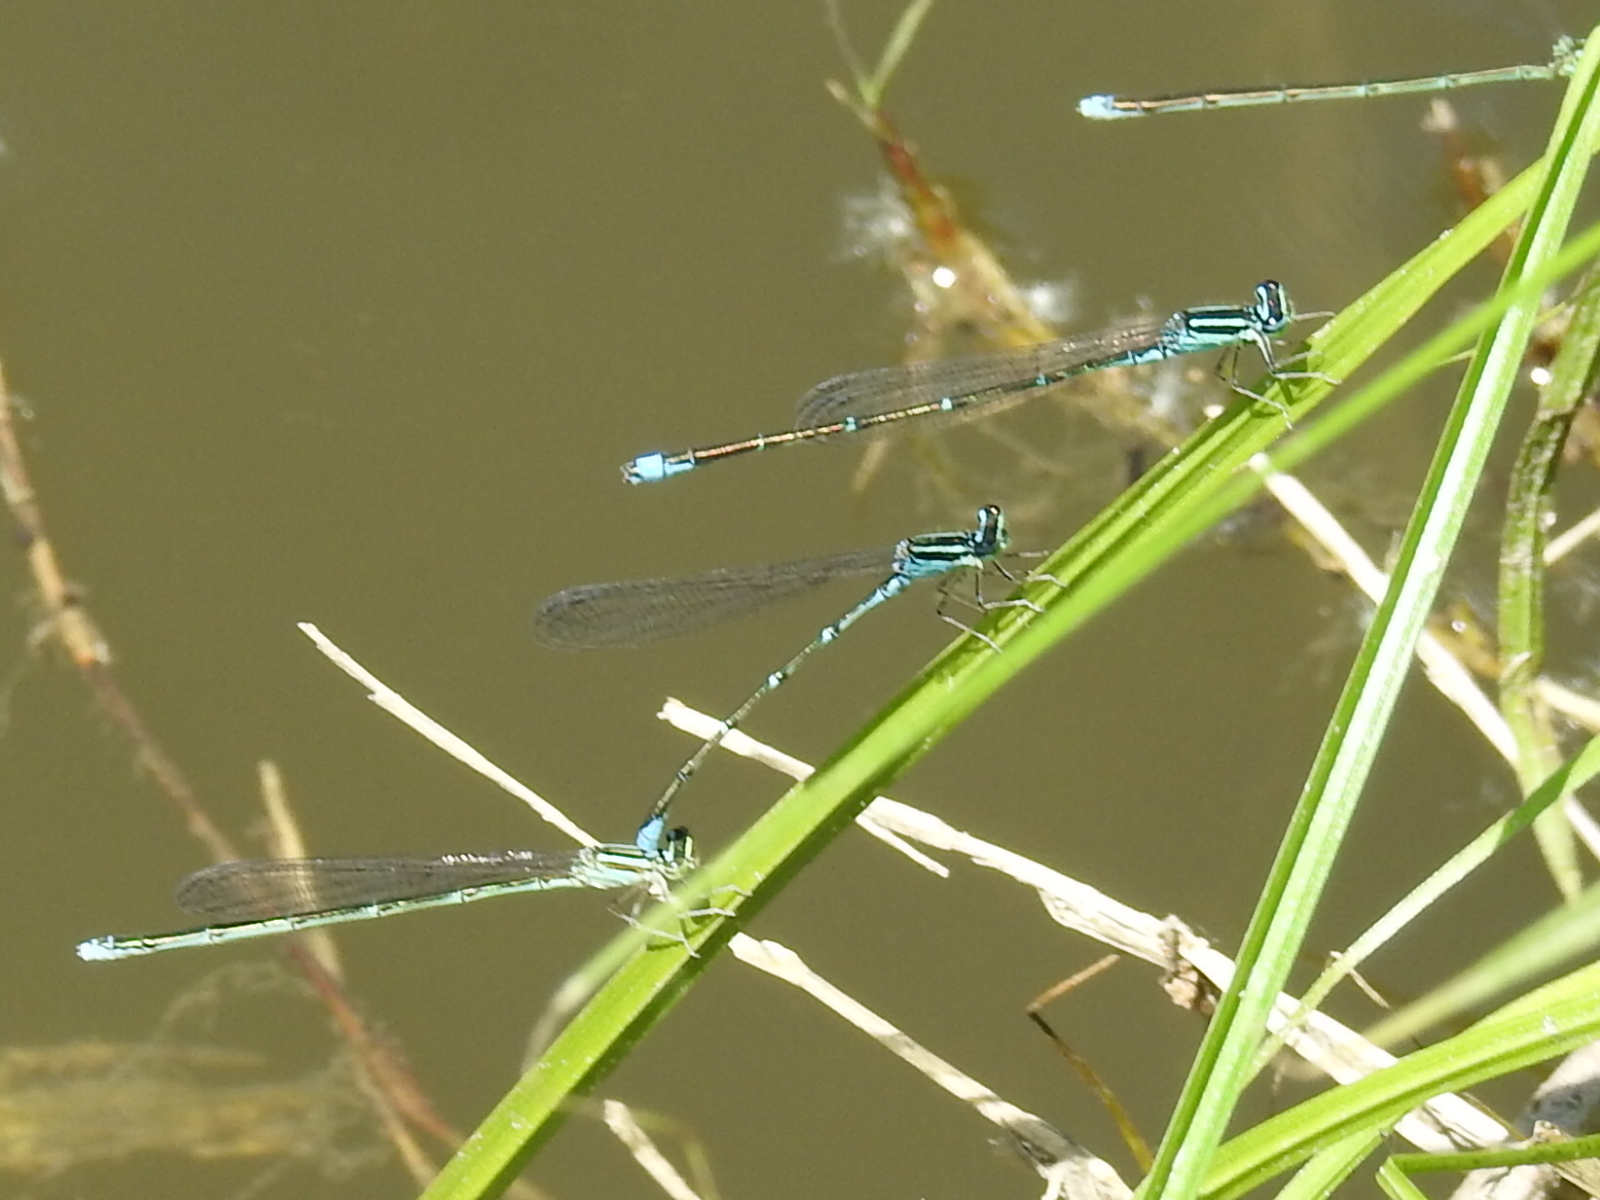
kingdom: Animalia
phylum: Arthropoda
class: Insecta
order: Odonata
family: Coenagrionidae
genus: Enallagma
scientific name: Enallagma exsulans
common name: Stream bluet
